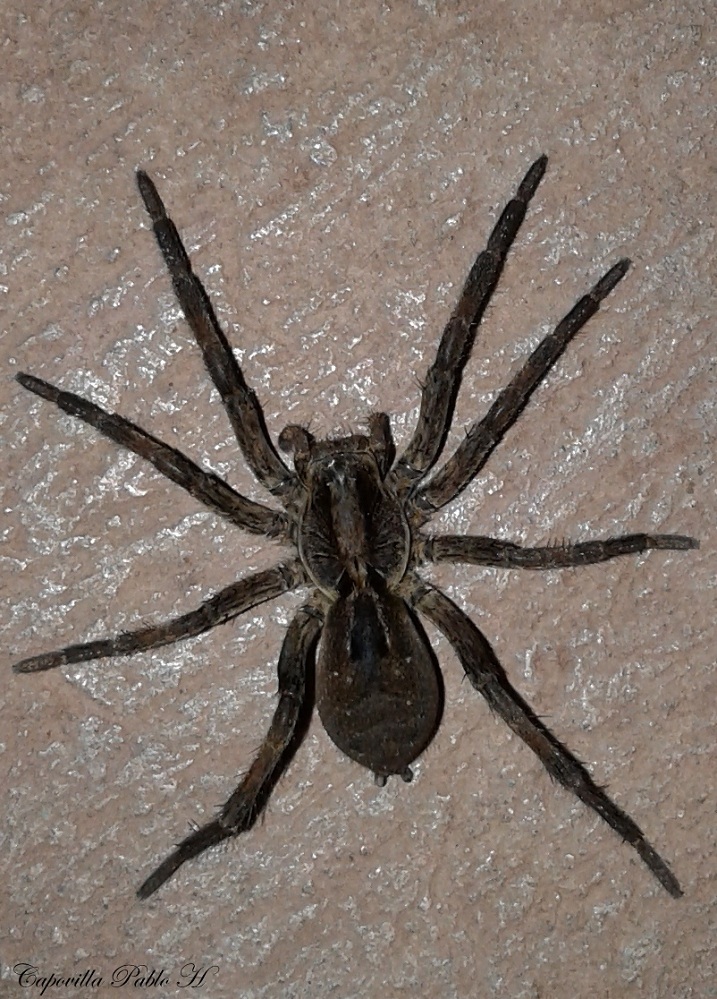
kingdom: Animalia
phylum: Arthropoda
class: Arachnida
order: Araneae
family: Lycosidae
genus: Lycosa
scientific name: Lycosa erythrognatha
